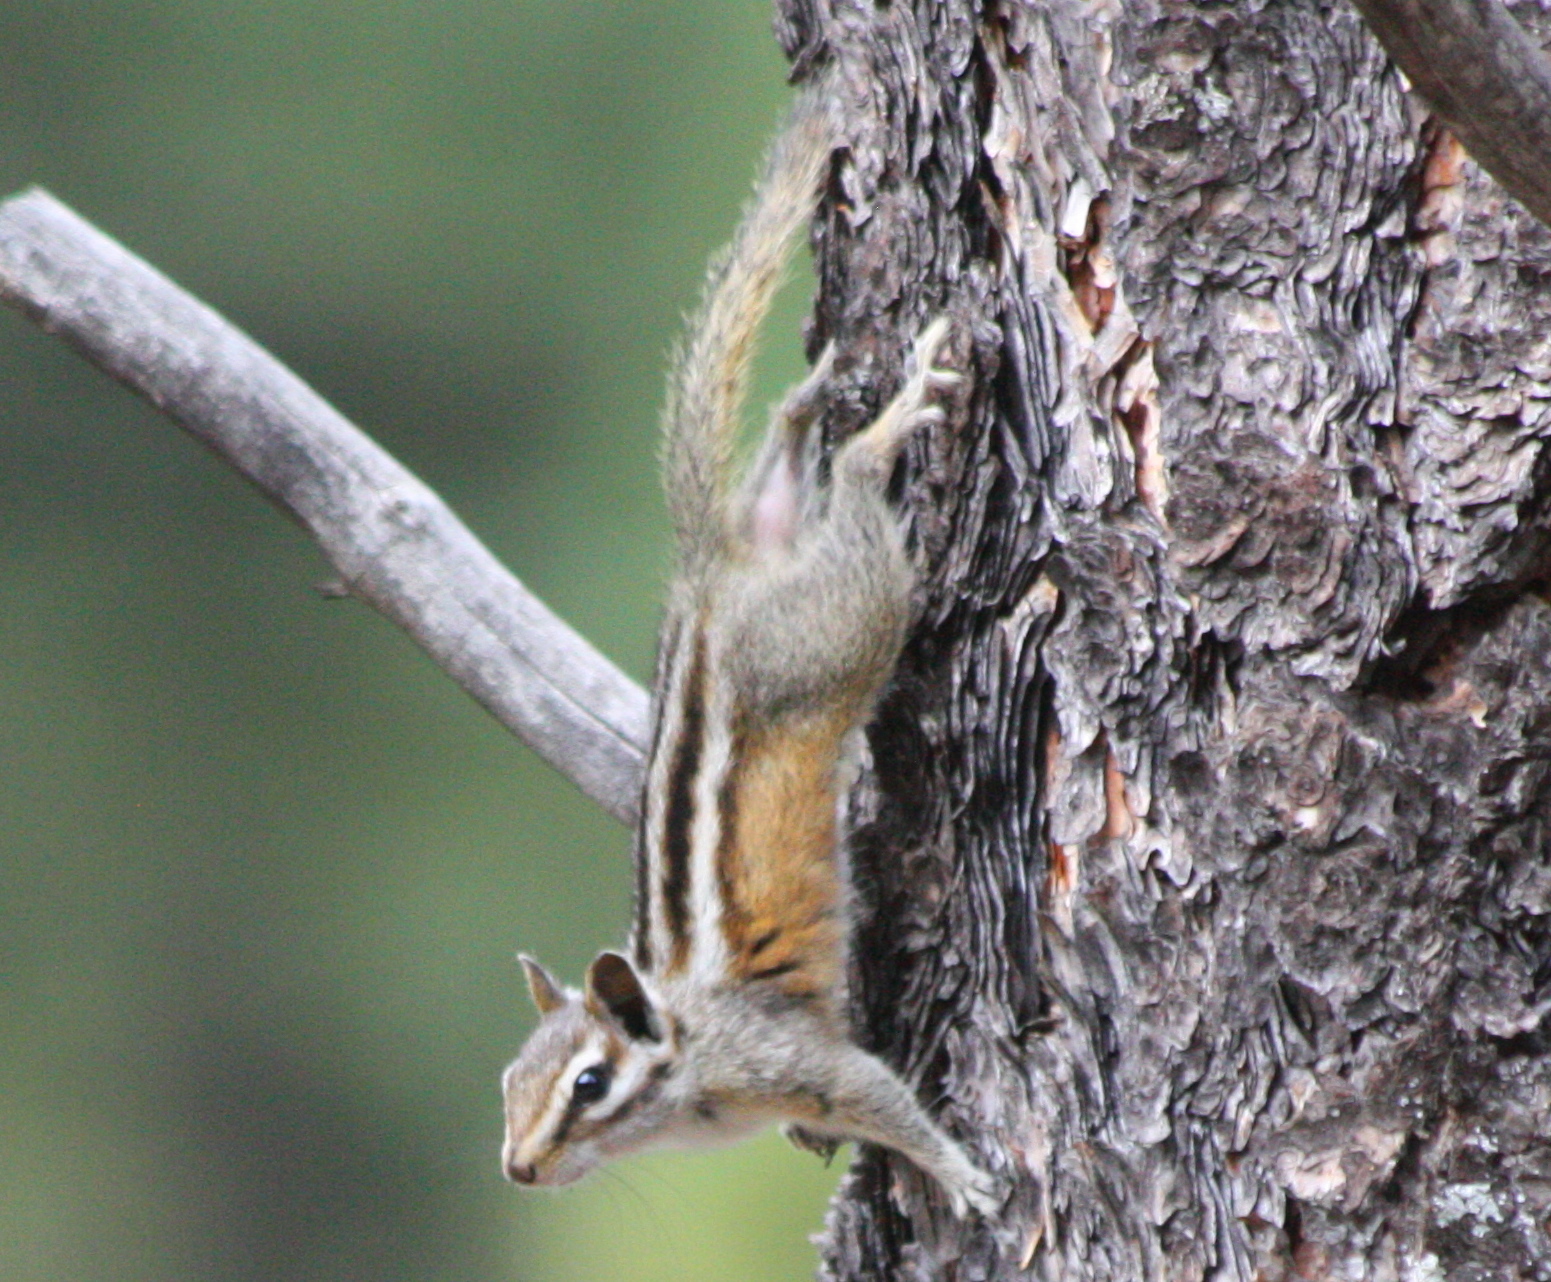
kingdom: Animalia
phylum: Chordata
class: Mammalia
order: Rodentia
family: Sciuridae
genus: Tamias
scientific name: Tamias cinereicollis
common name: Gray-collared chipmunk
